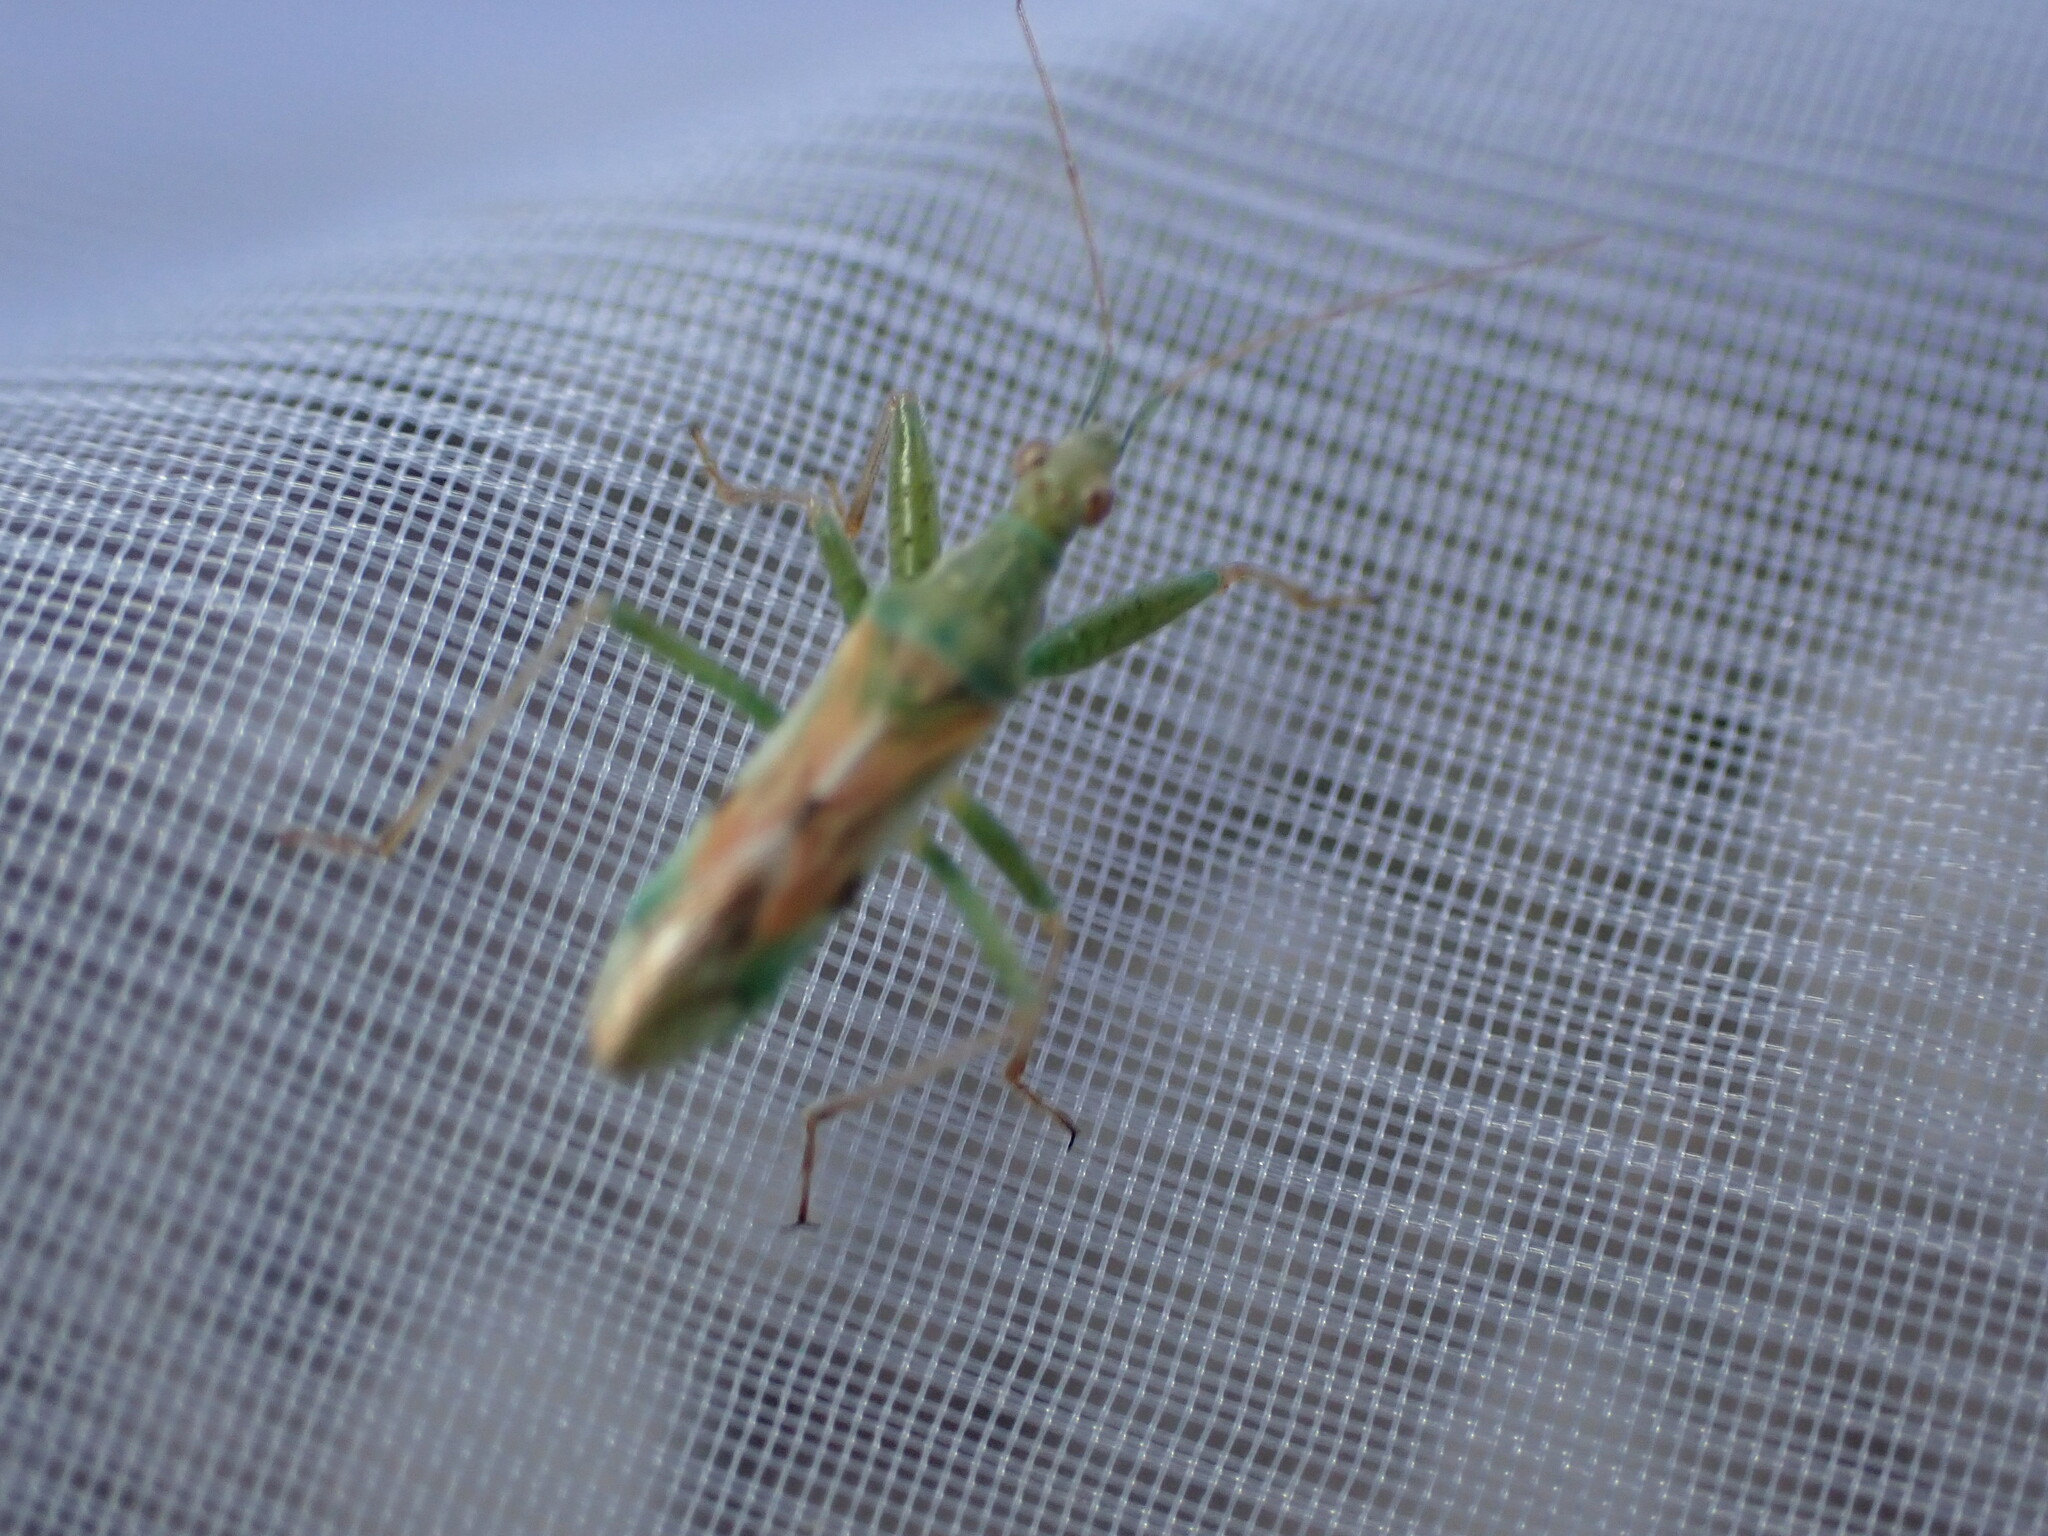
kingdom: Animalia
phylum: Arthropoda
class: Insecta
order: Hemiptera
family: Nabidae
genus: Nabis
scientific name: Nabis viridulus
